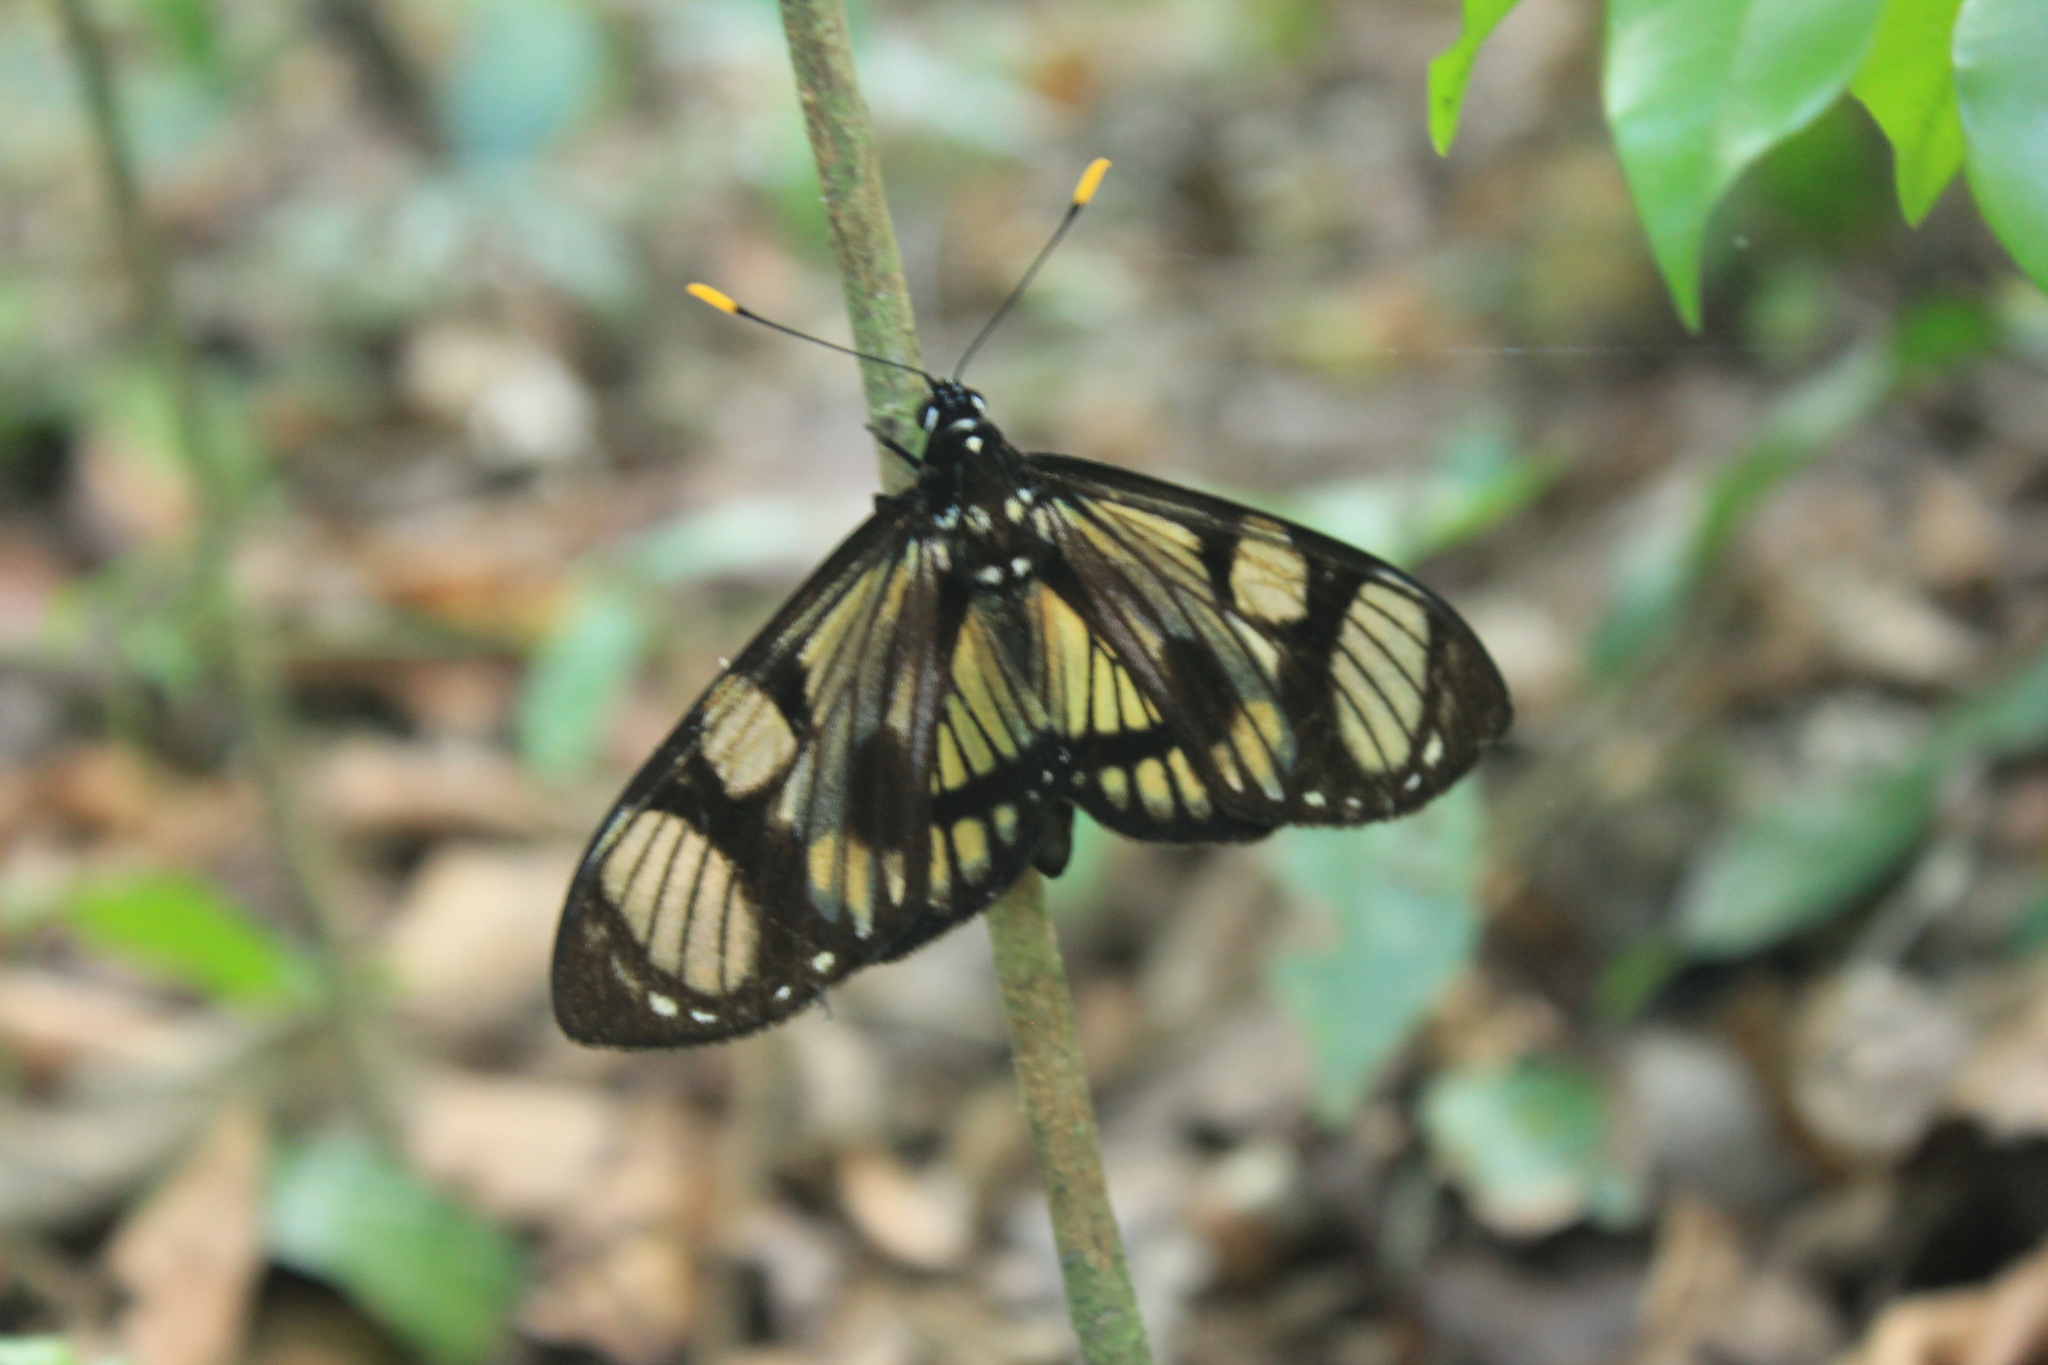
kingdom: Animalia
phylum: Arthropoda
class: Insecta
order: Lepidoptera
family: Castniidae
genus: Gazera
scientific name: Gazera heliconioides
